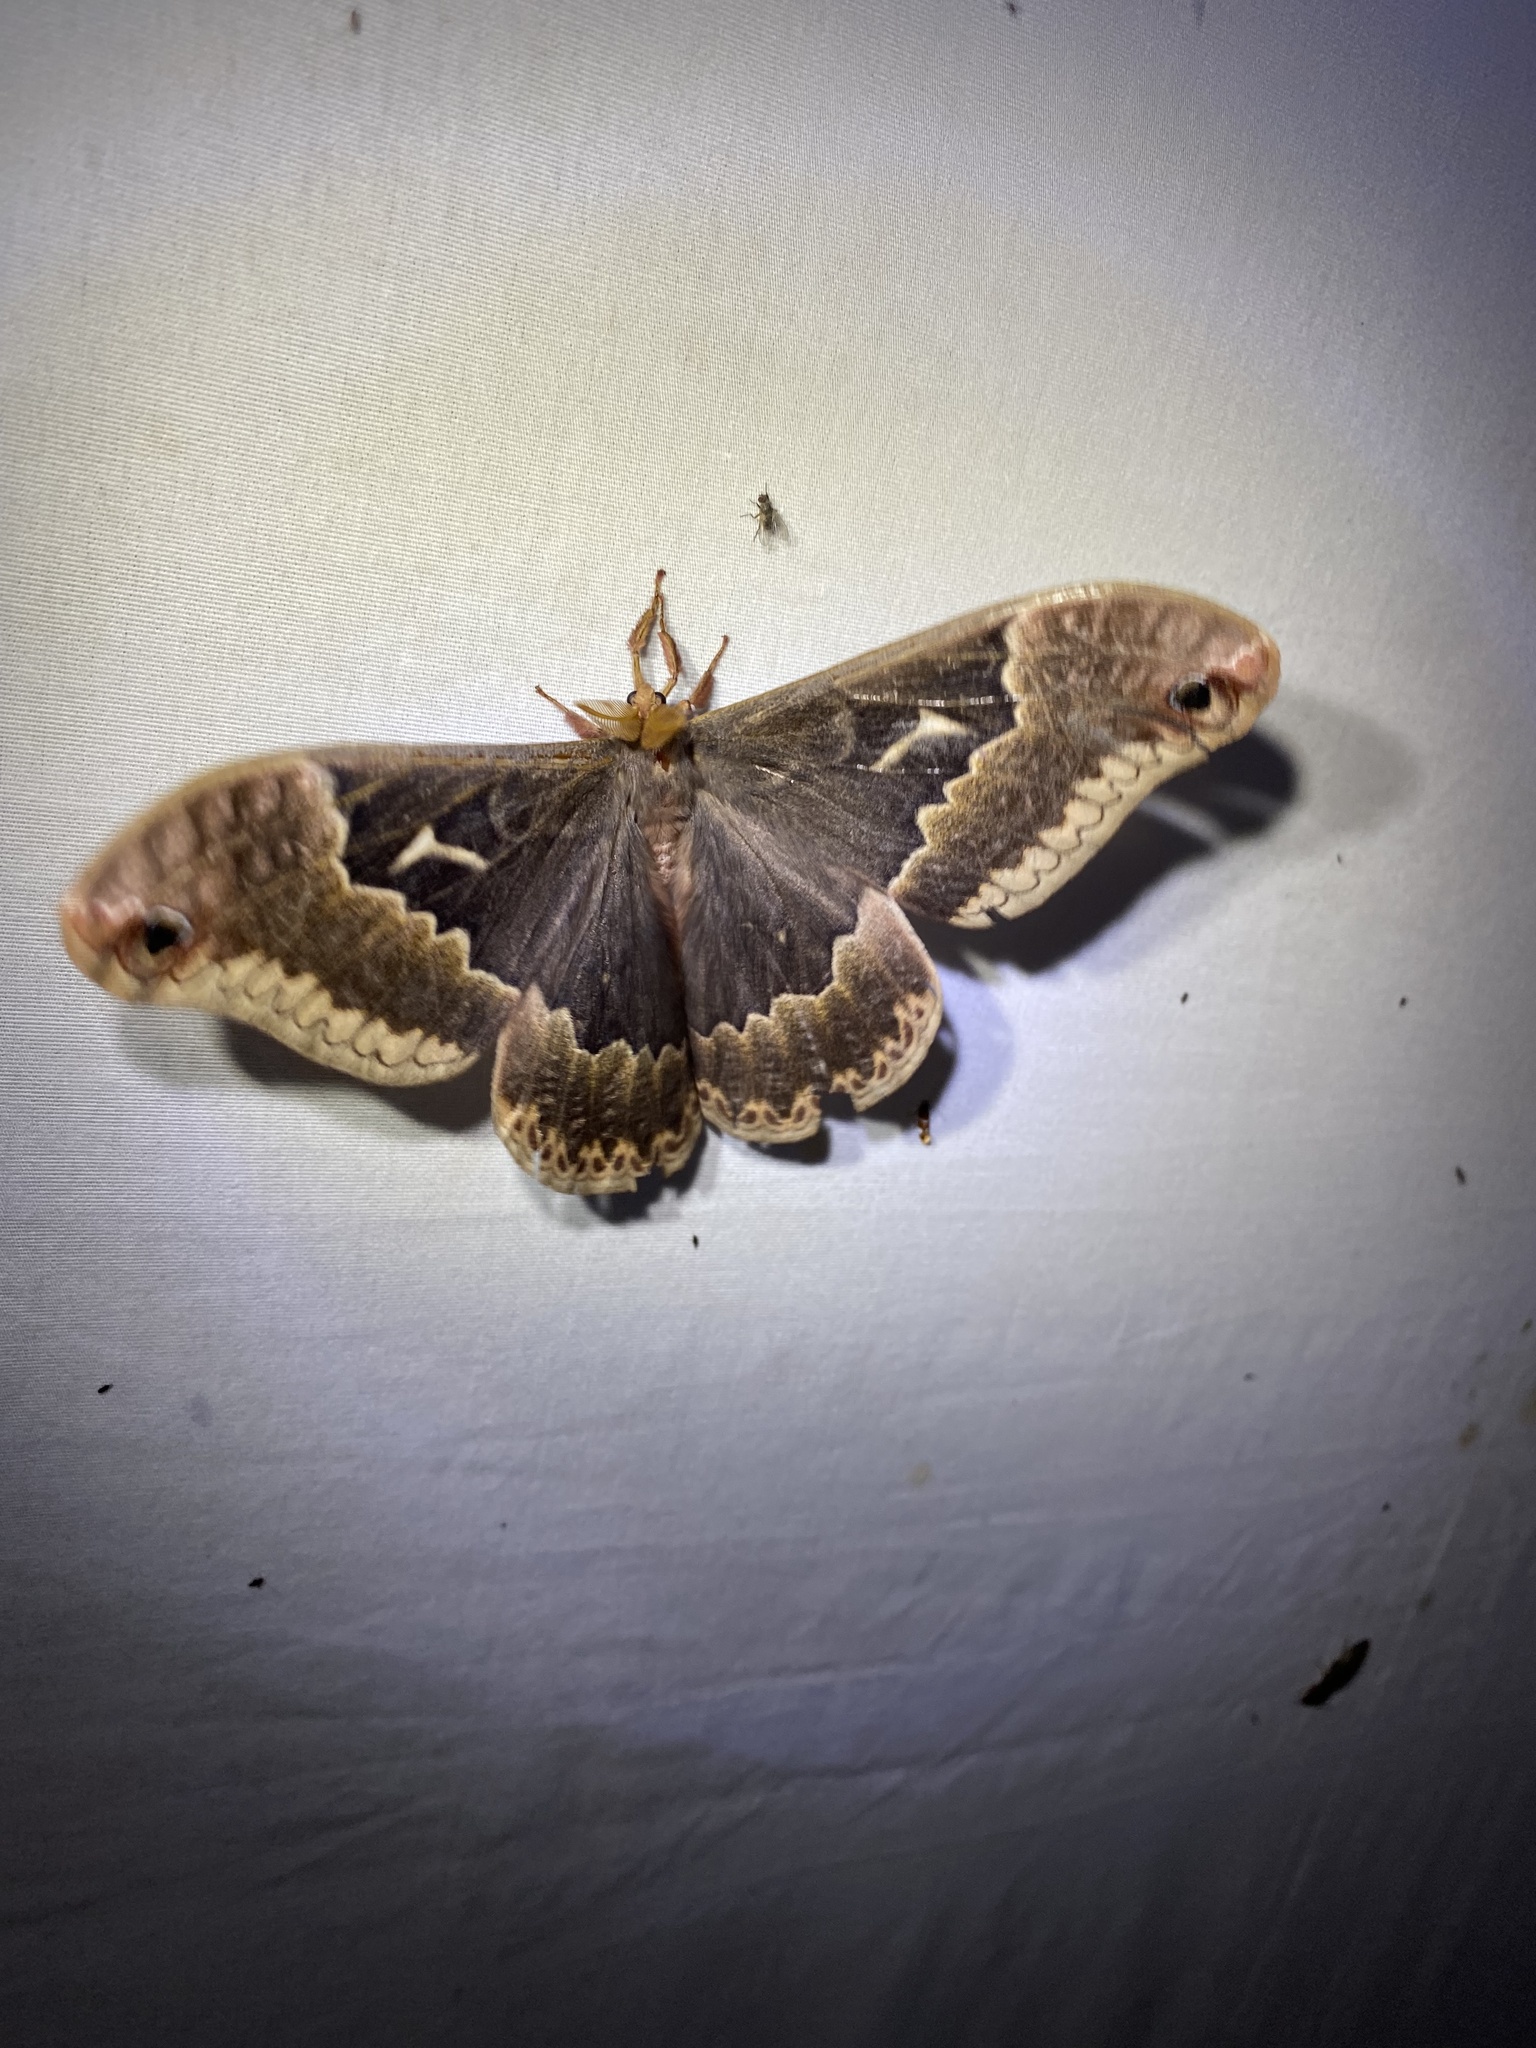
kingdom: Animalia
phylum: Arthropoda
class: Insecta
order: Lepidoptera
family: Saturniidae
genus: Callosamia
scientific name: Callosamia angulifera
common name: Tulip tree silkmoth
